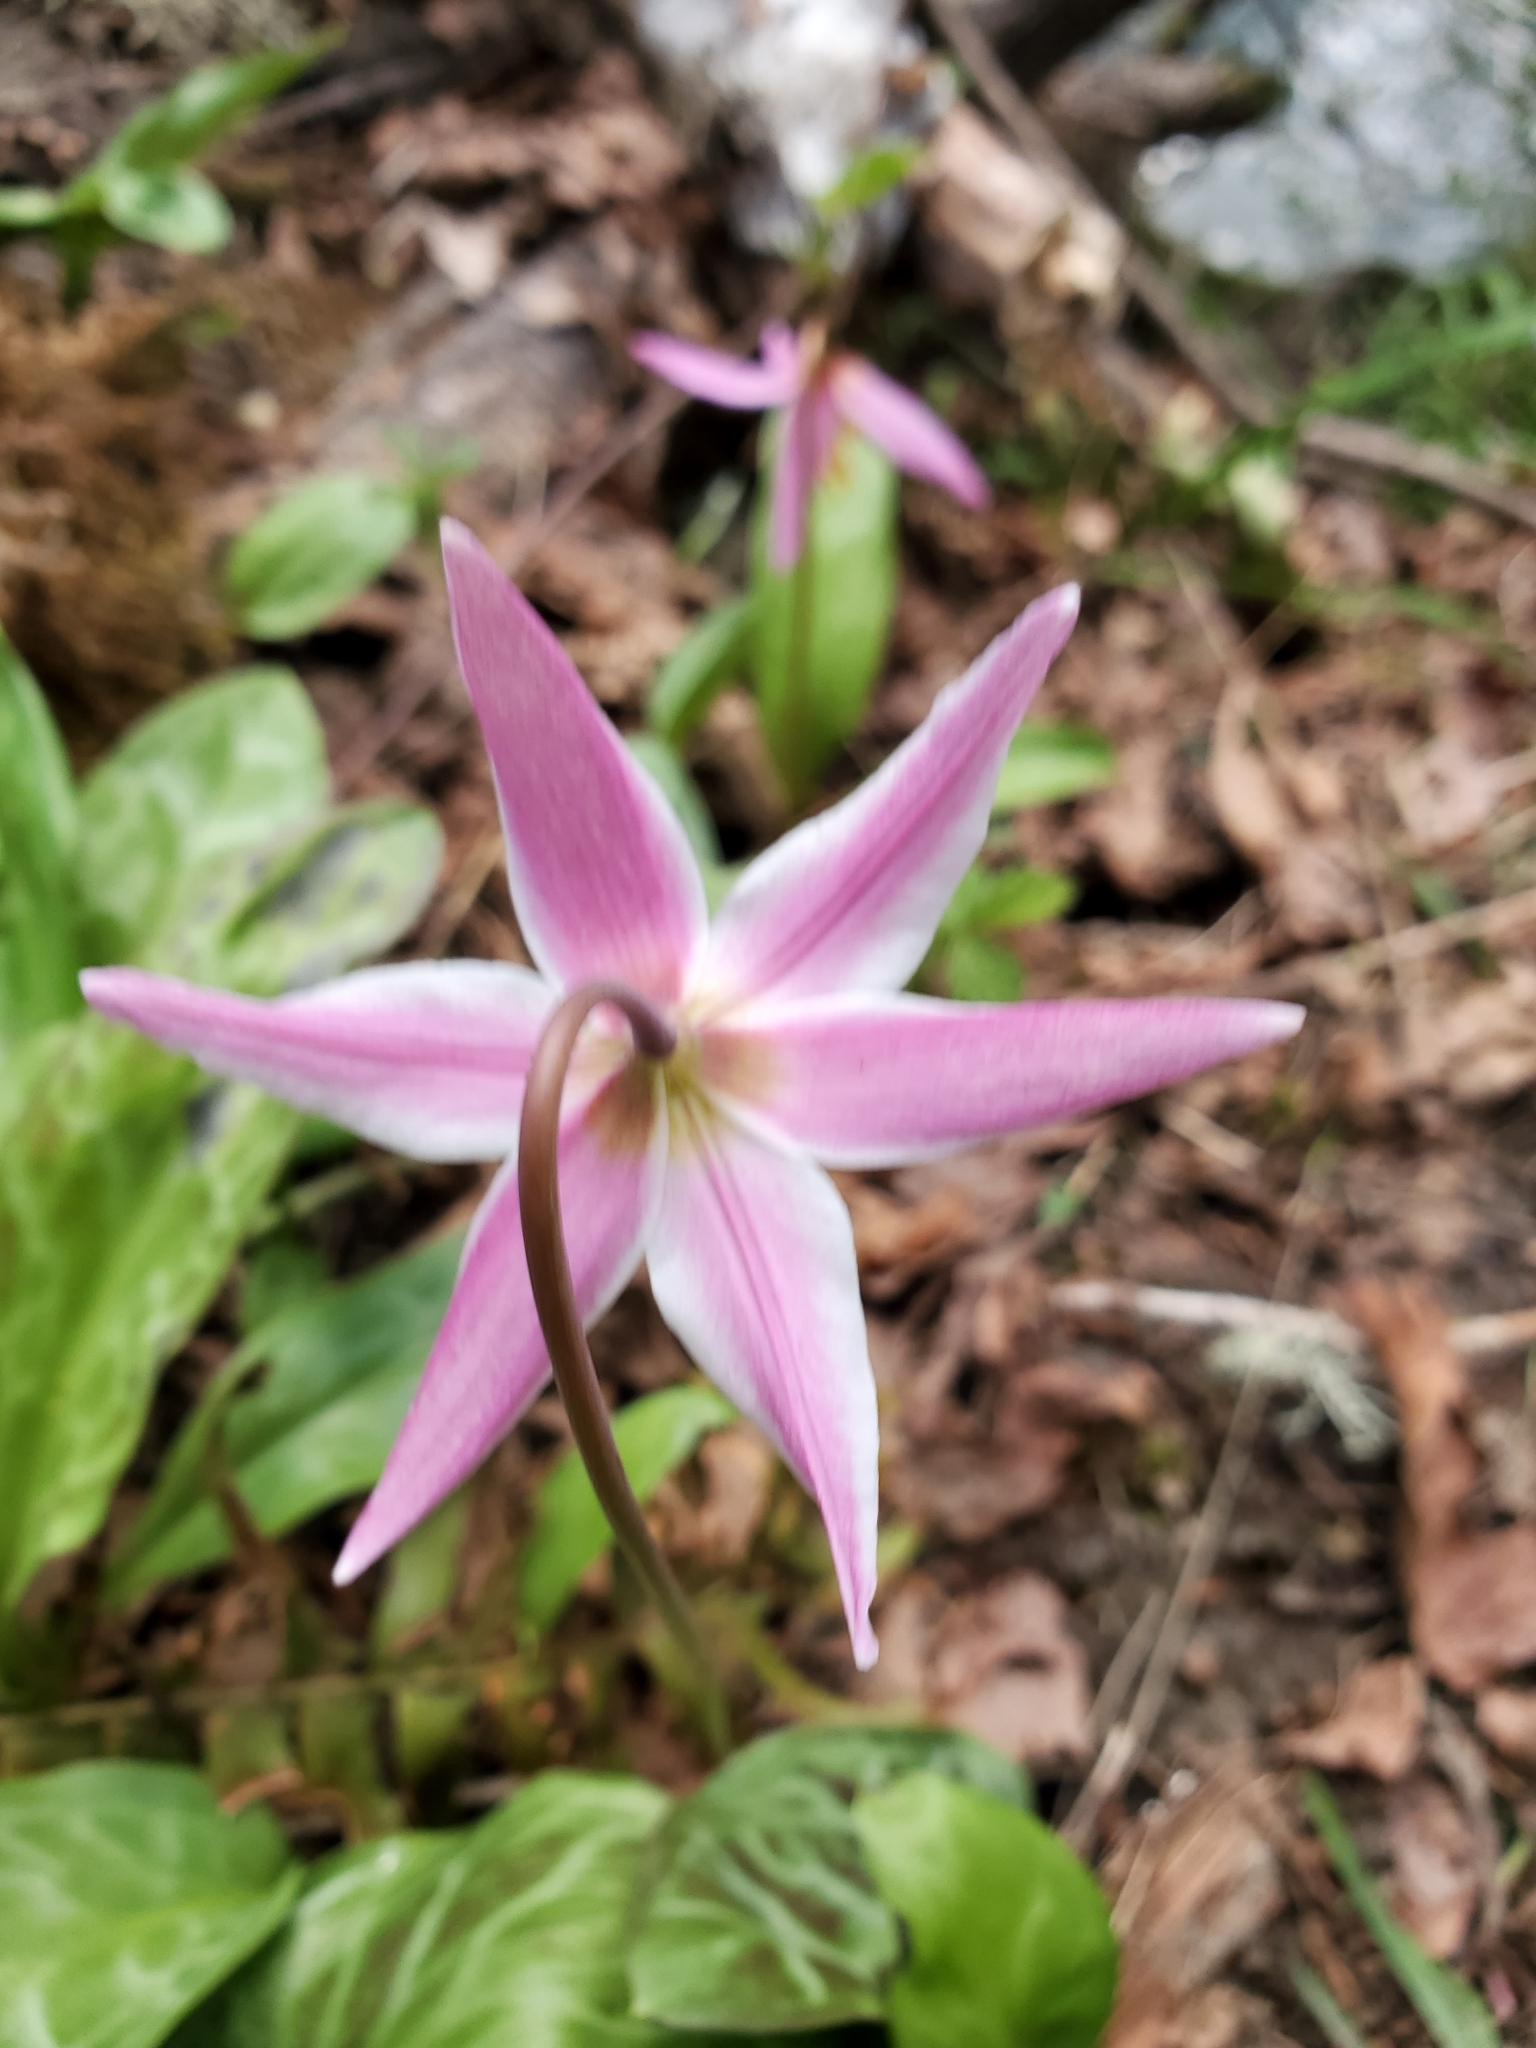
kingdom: Plantae
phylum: Tracheophyta
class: Liliopsida
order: Liliales
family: Liliaceae
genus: Erythronium
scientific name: Erythronium
